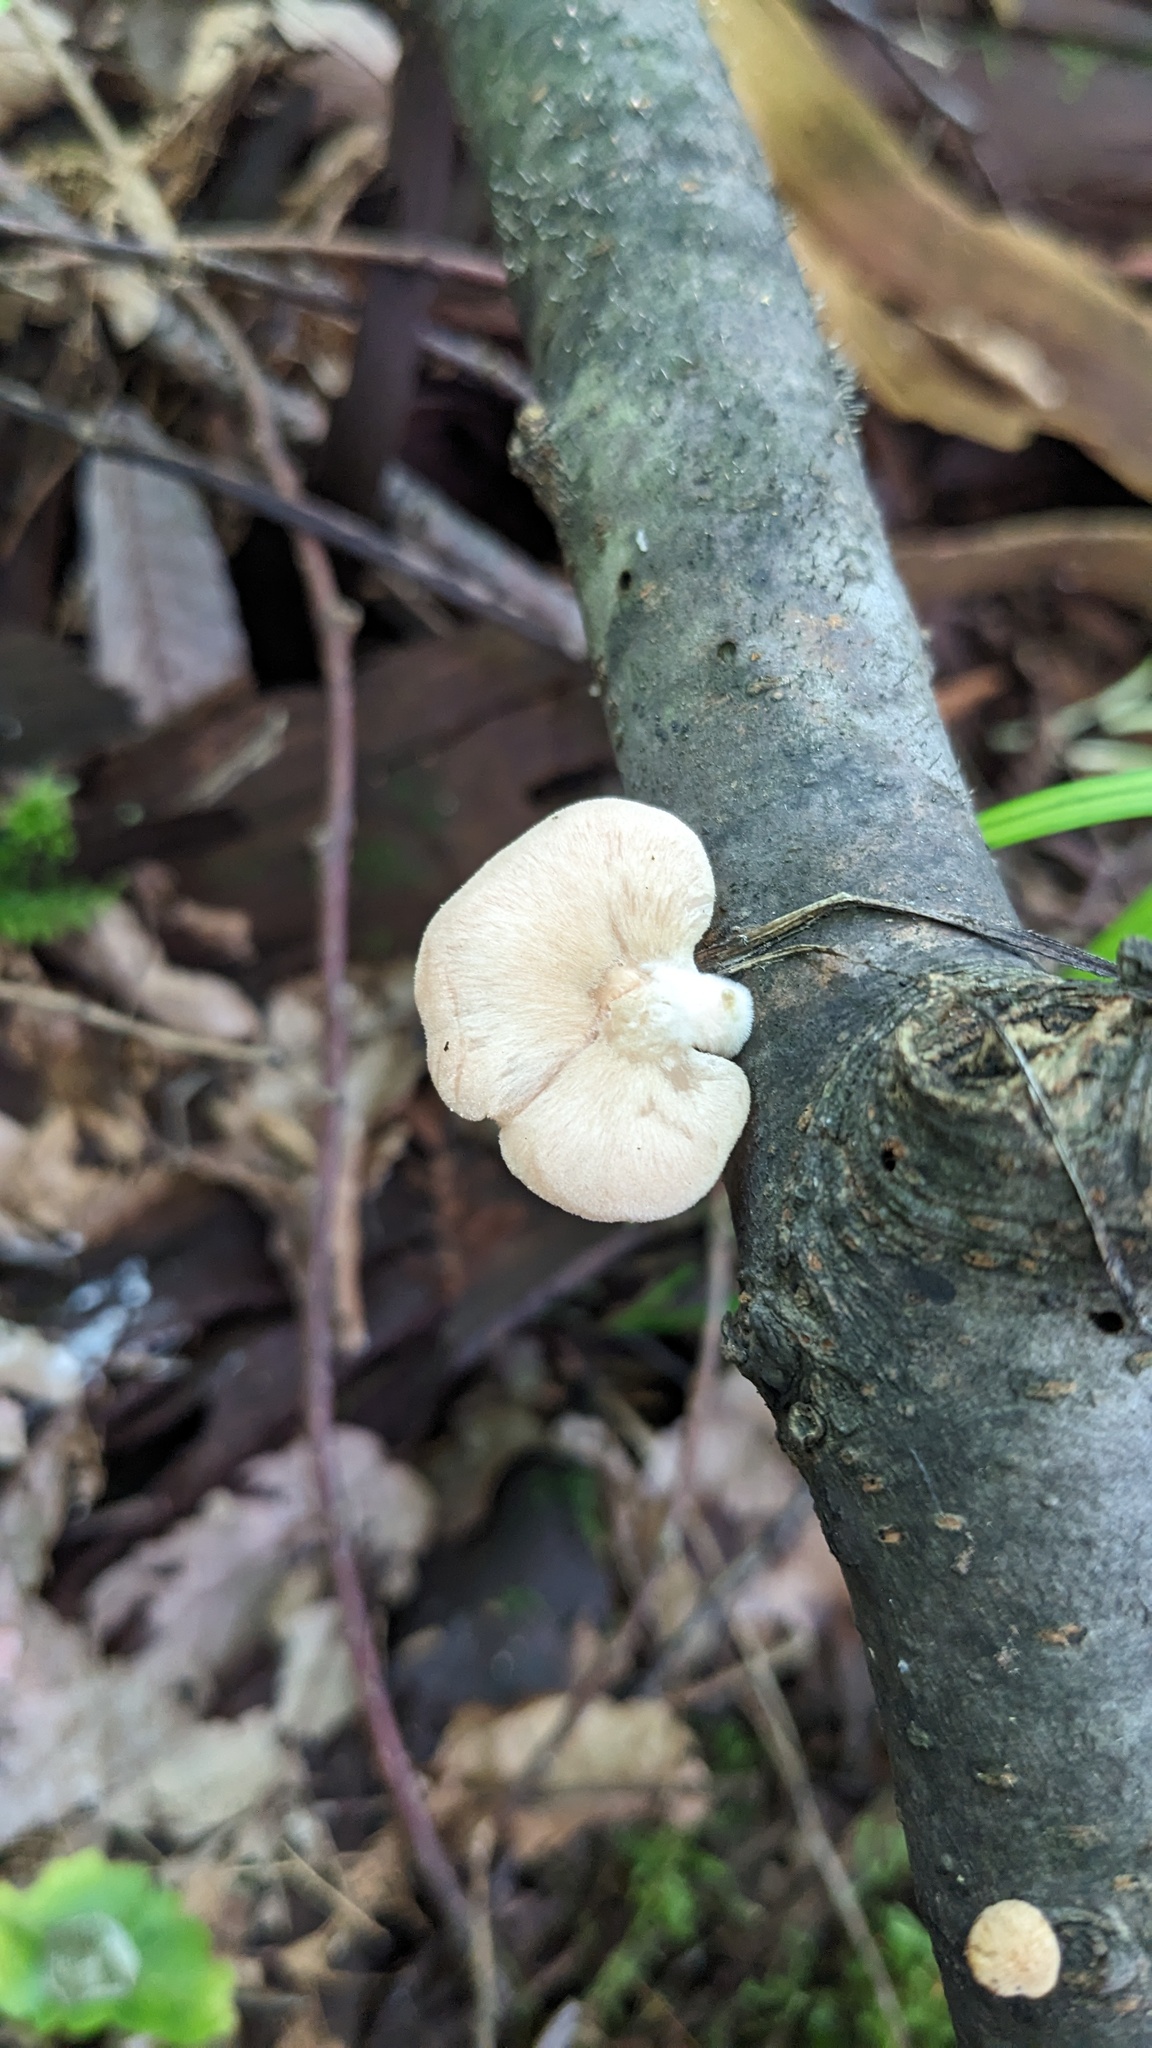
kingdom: Fungi
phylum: Basidiomycota
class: Agaricomycetes
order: Agaricales
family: Pleurotaceae
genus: Pleurotus
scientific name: Pleurotus djamor
